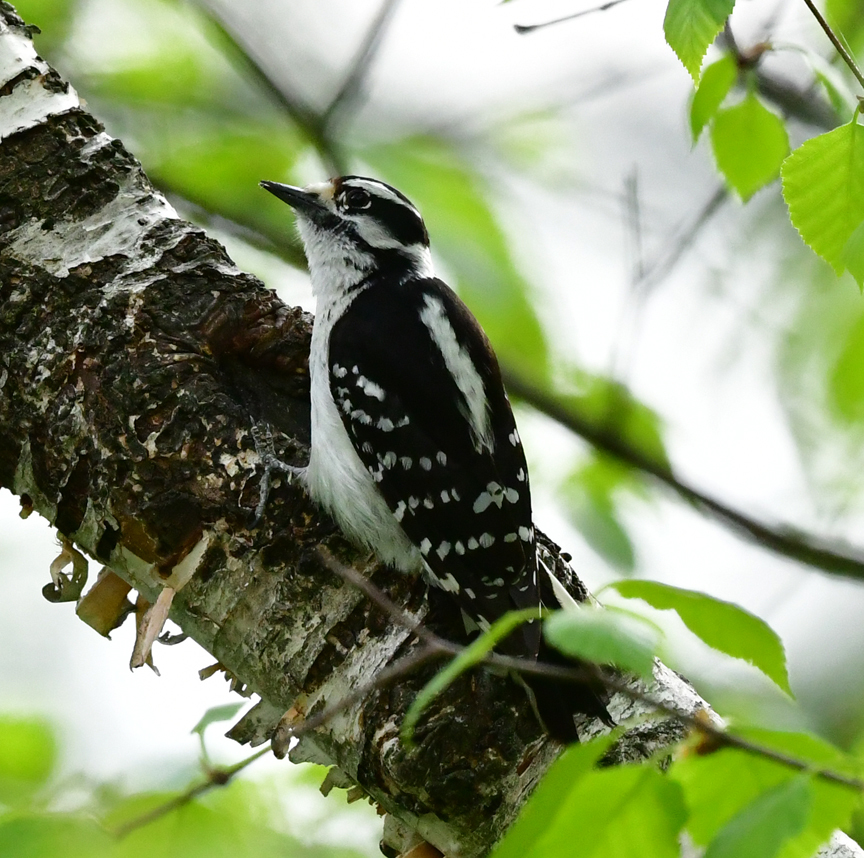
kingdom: Animalia
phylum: Chordata
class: Aves
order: Piciformes
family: Picidae
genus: Dryobates
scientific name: Dryobates pubescens
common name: Downy woodpecker
